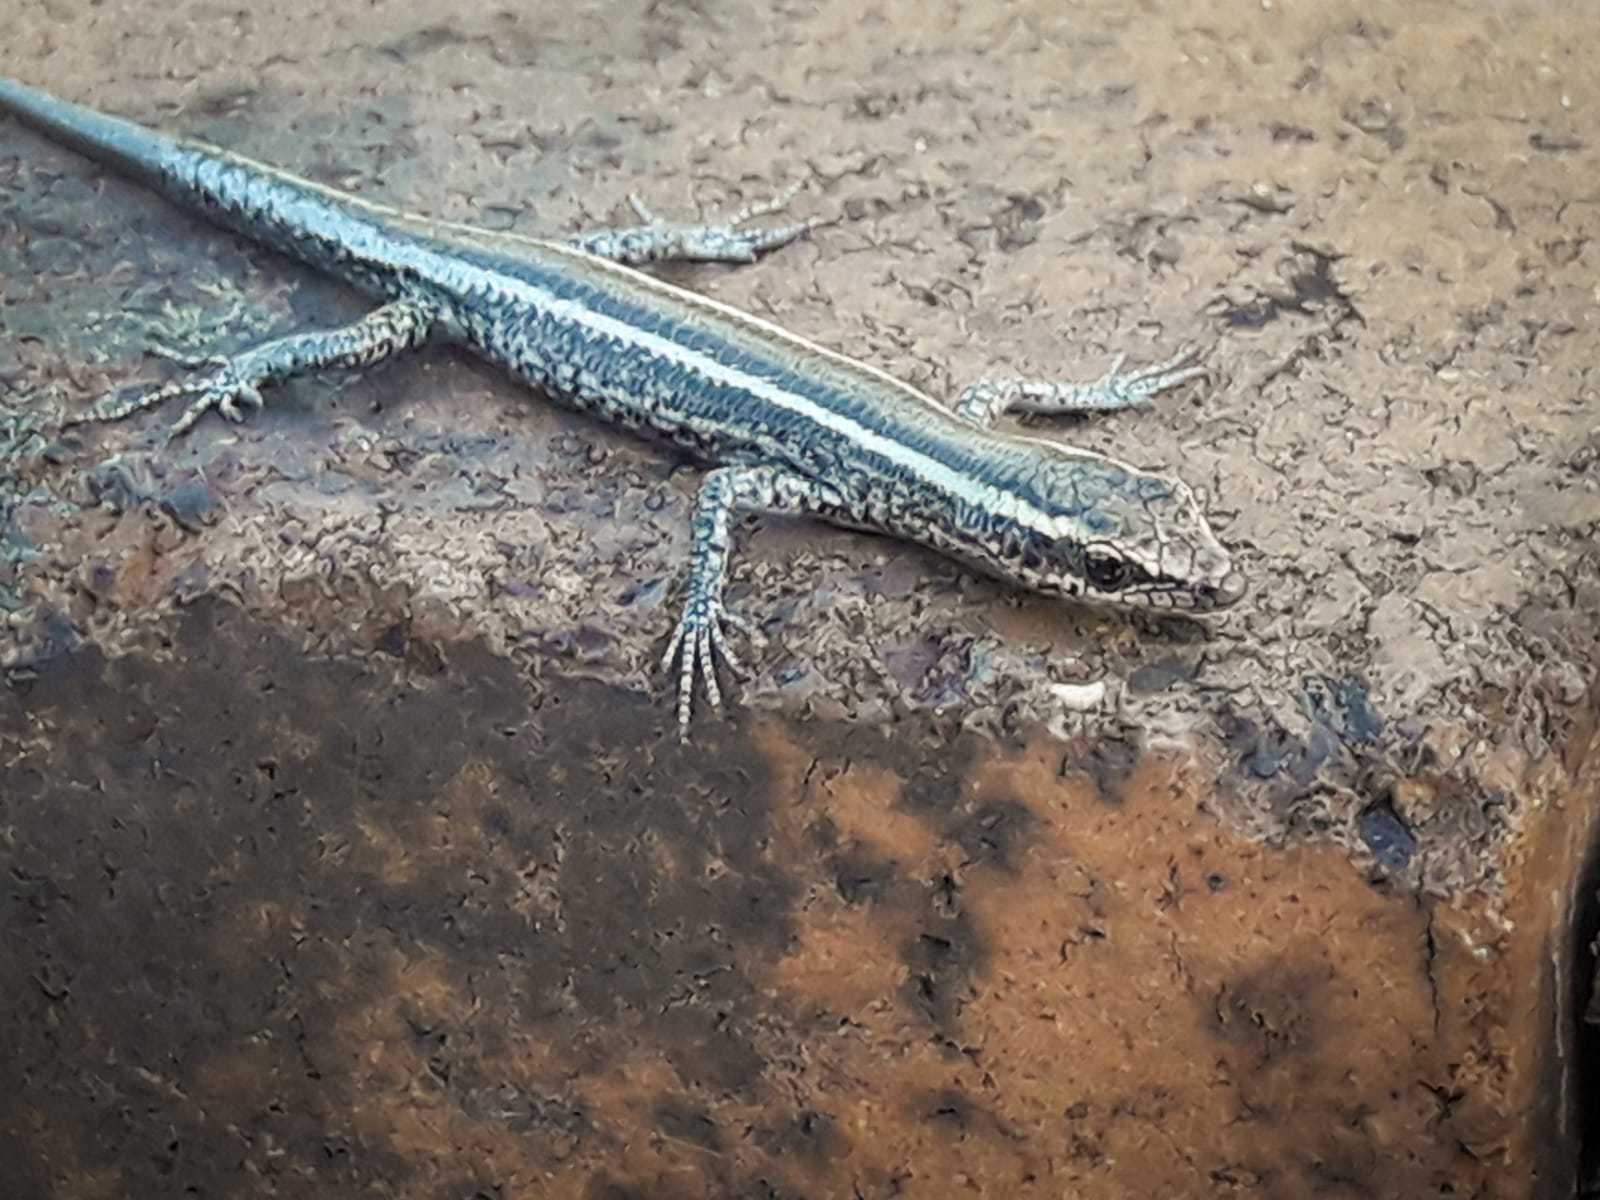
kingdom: Animalia
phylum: Chordata
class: Squamata
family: Scincidae
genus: Cryptoblepharus
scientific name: Cryptoblepharus pulcher
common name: Elegant snake-eyed skink
